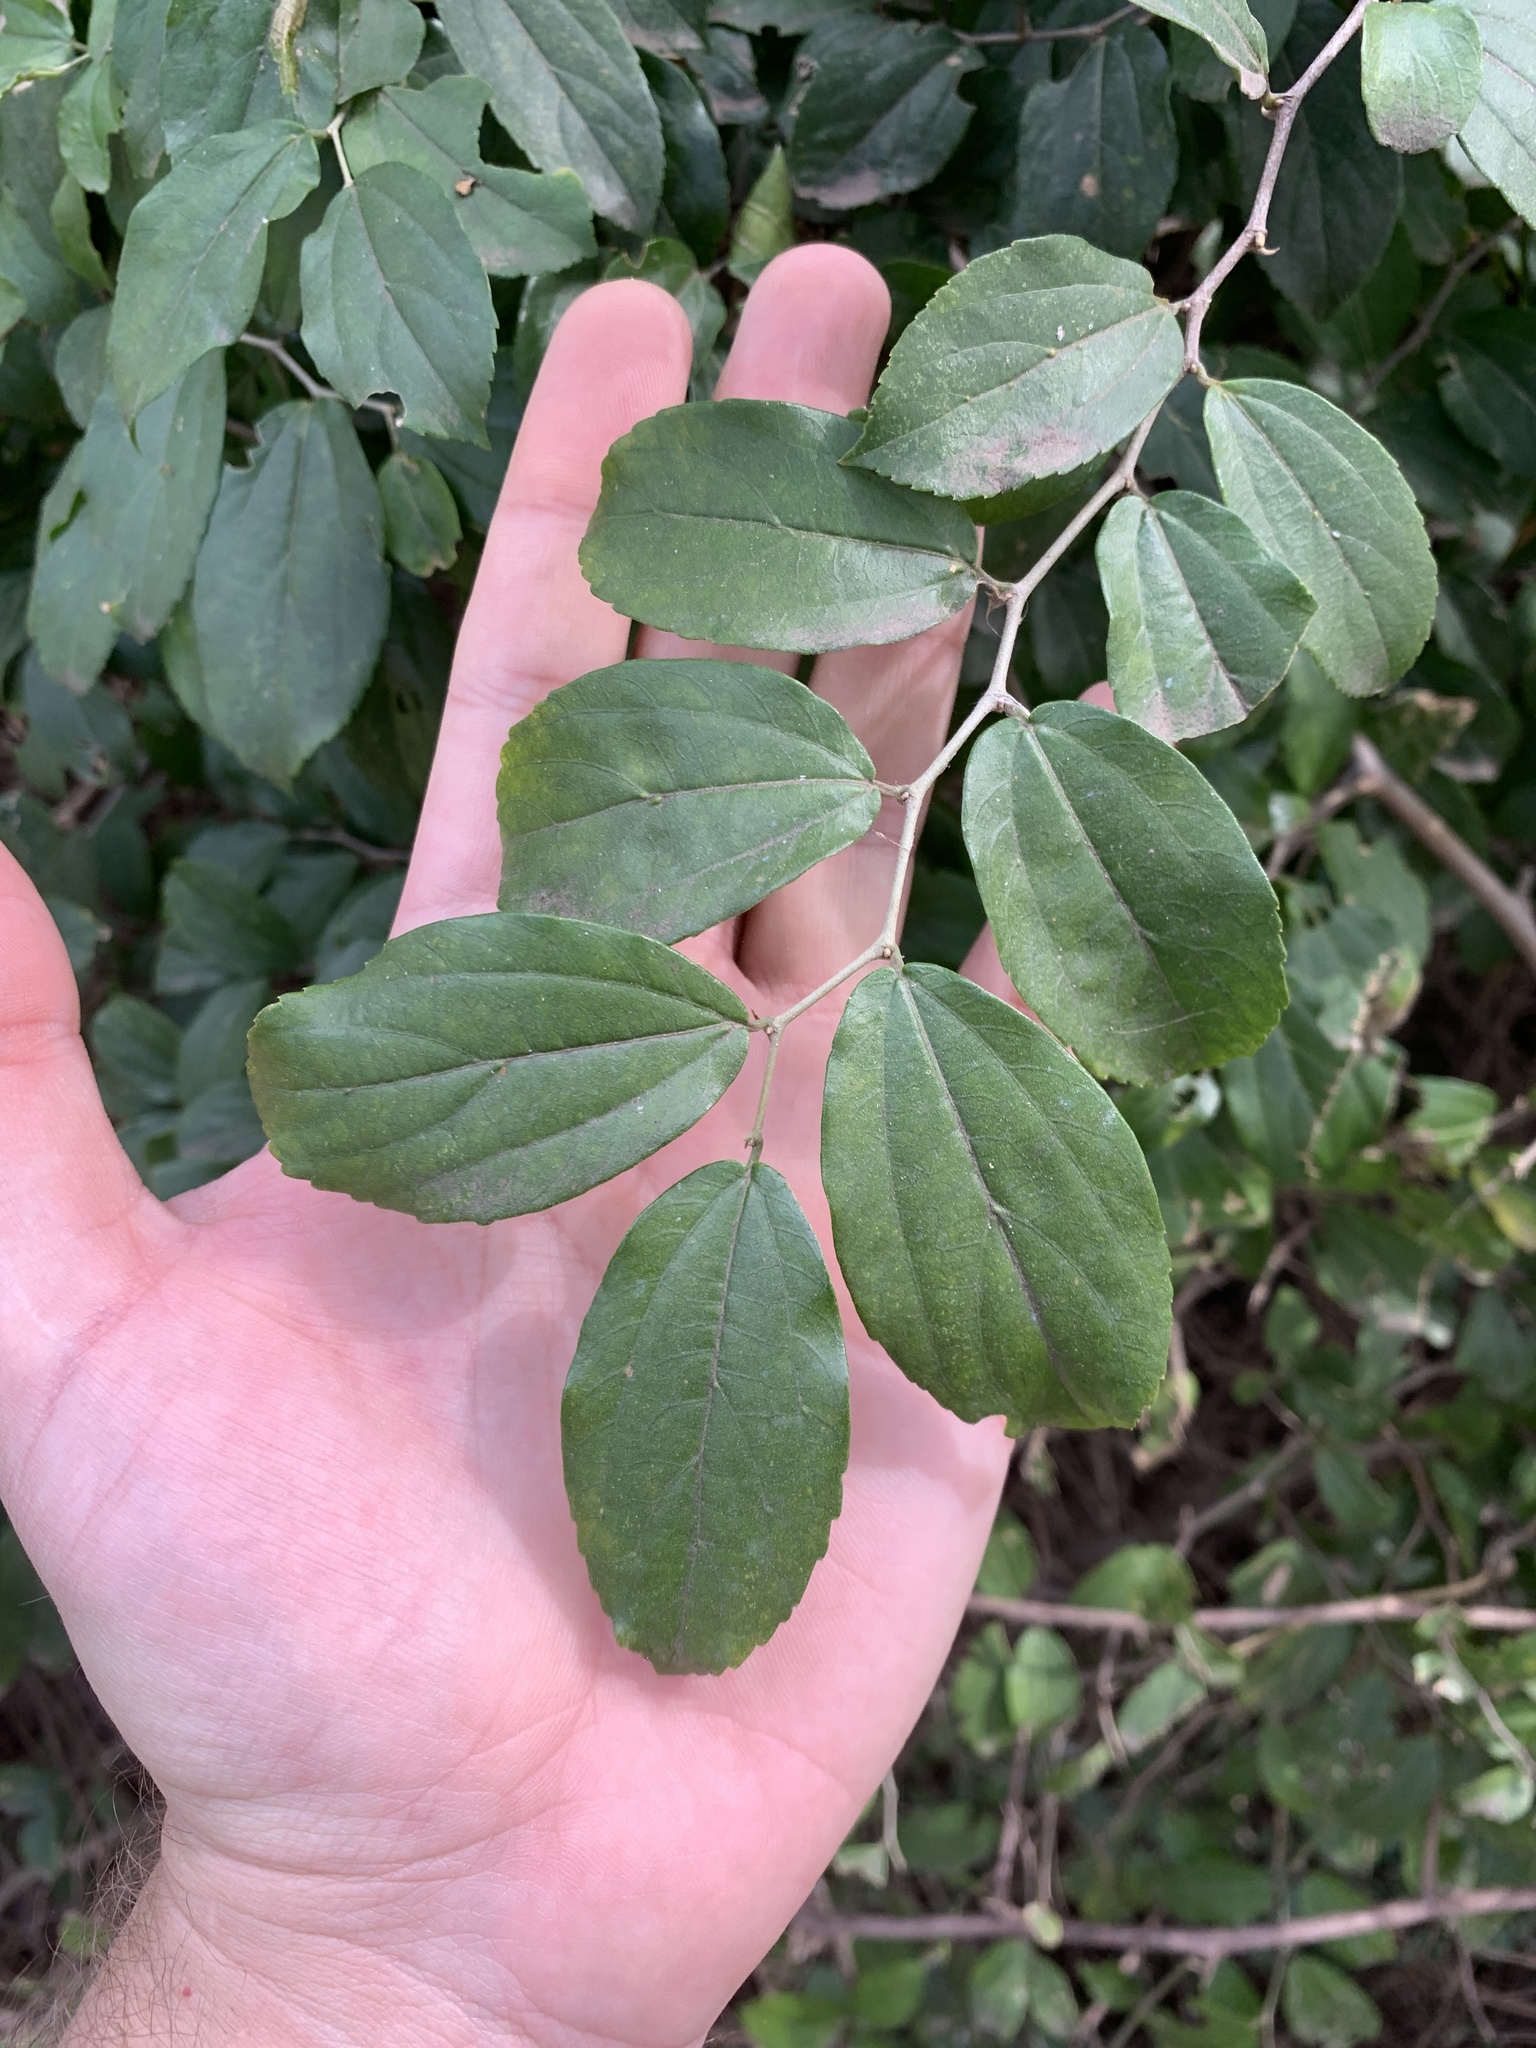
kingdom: Plantae
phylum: Tracheophyta
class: Magnoliopsida
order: Rosales
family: Cannabaceae
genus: Celtis
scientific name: Celtis iguanaea
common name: Iguana hackberry
